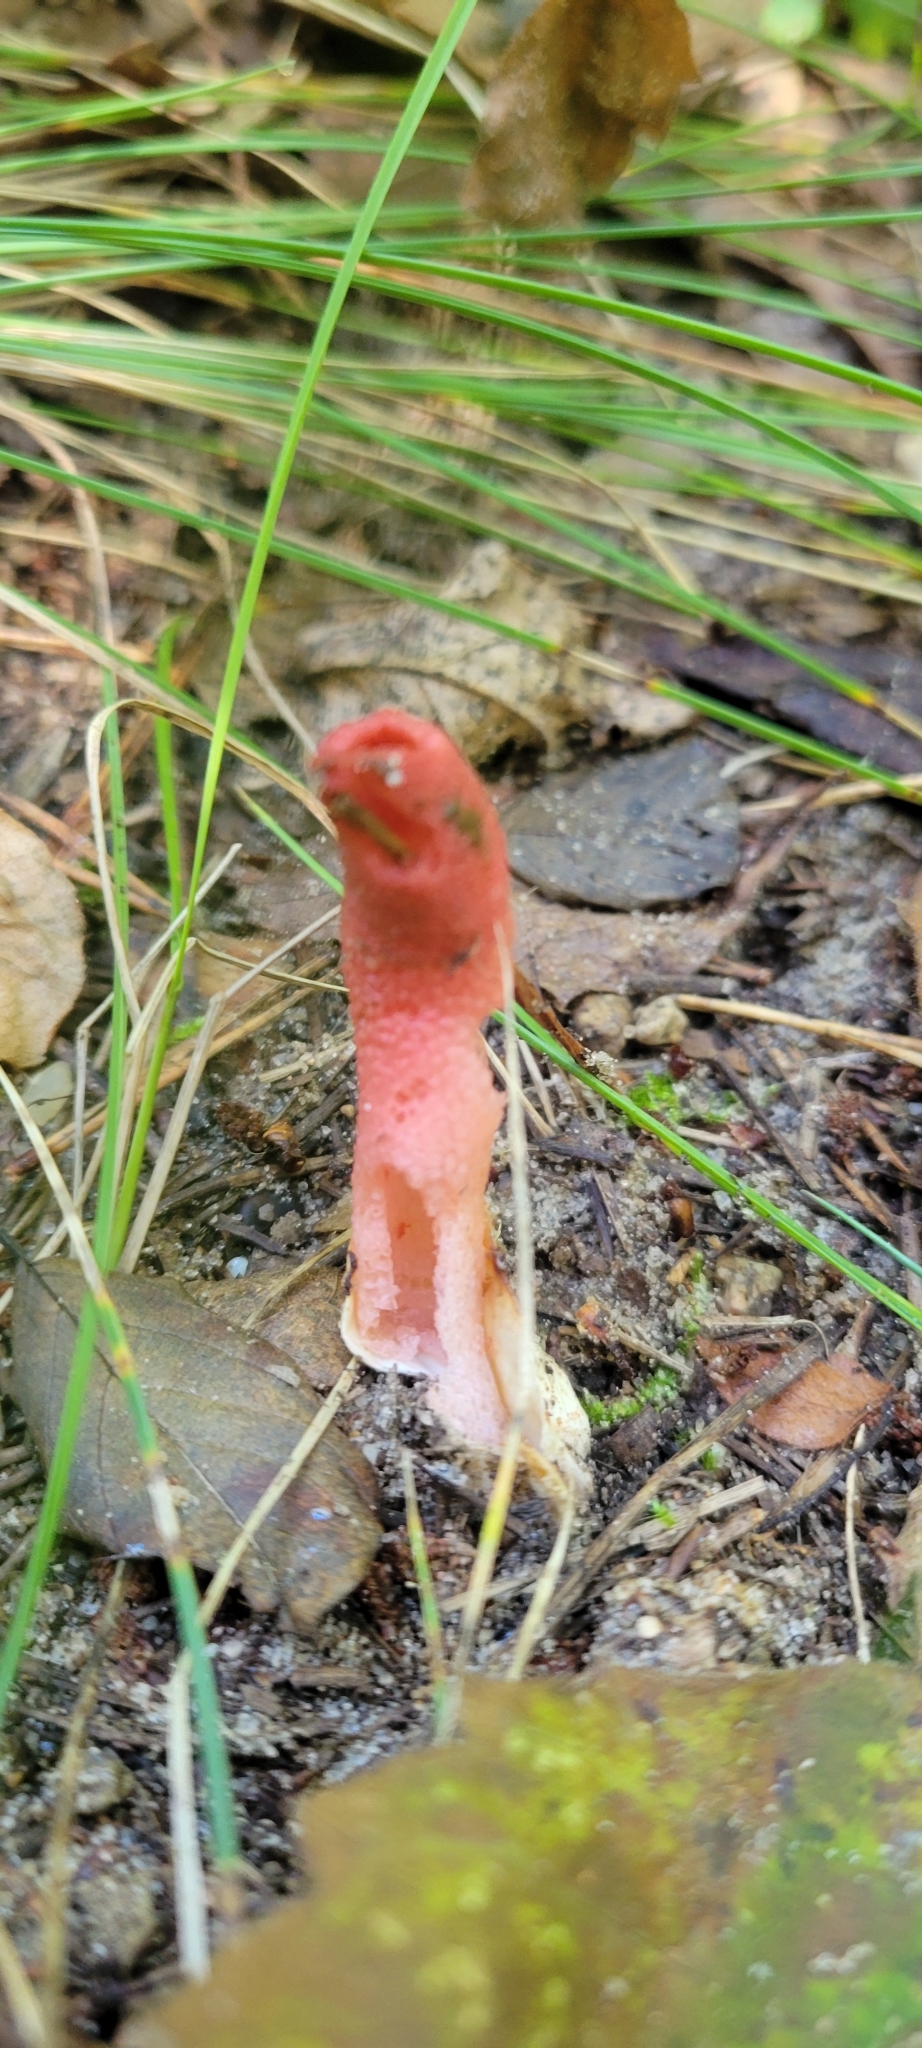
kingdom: Fungi
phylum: Basidiomycota
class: Agaricomycetes
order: Phallales
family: Phallaceae
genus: Mutinus
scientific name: Mutinus elegans
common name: Devil's dipstick
